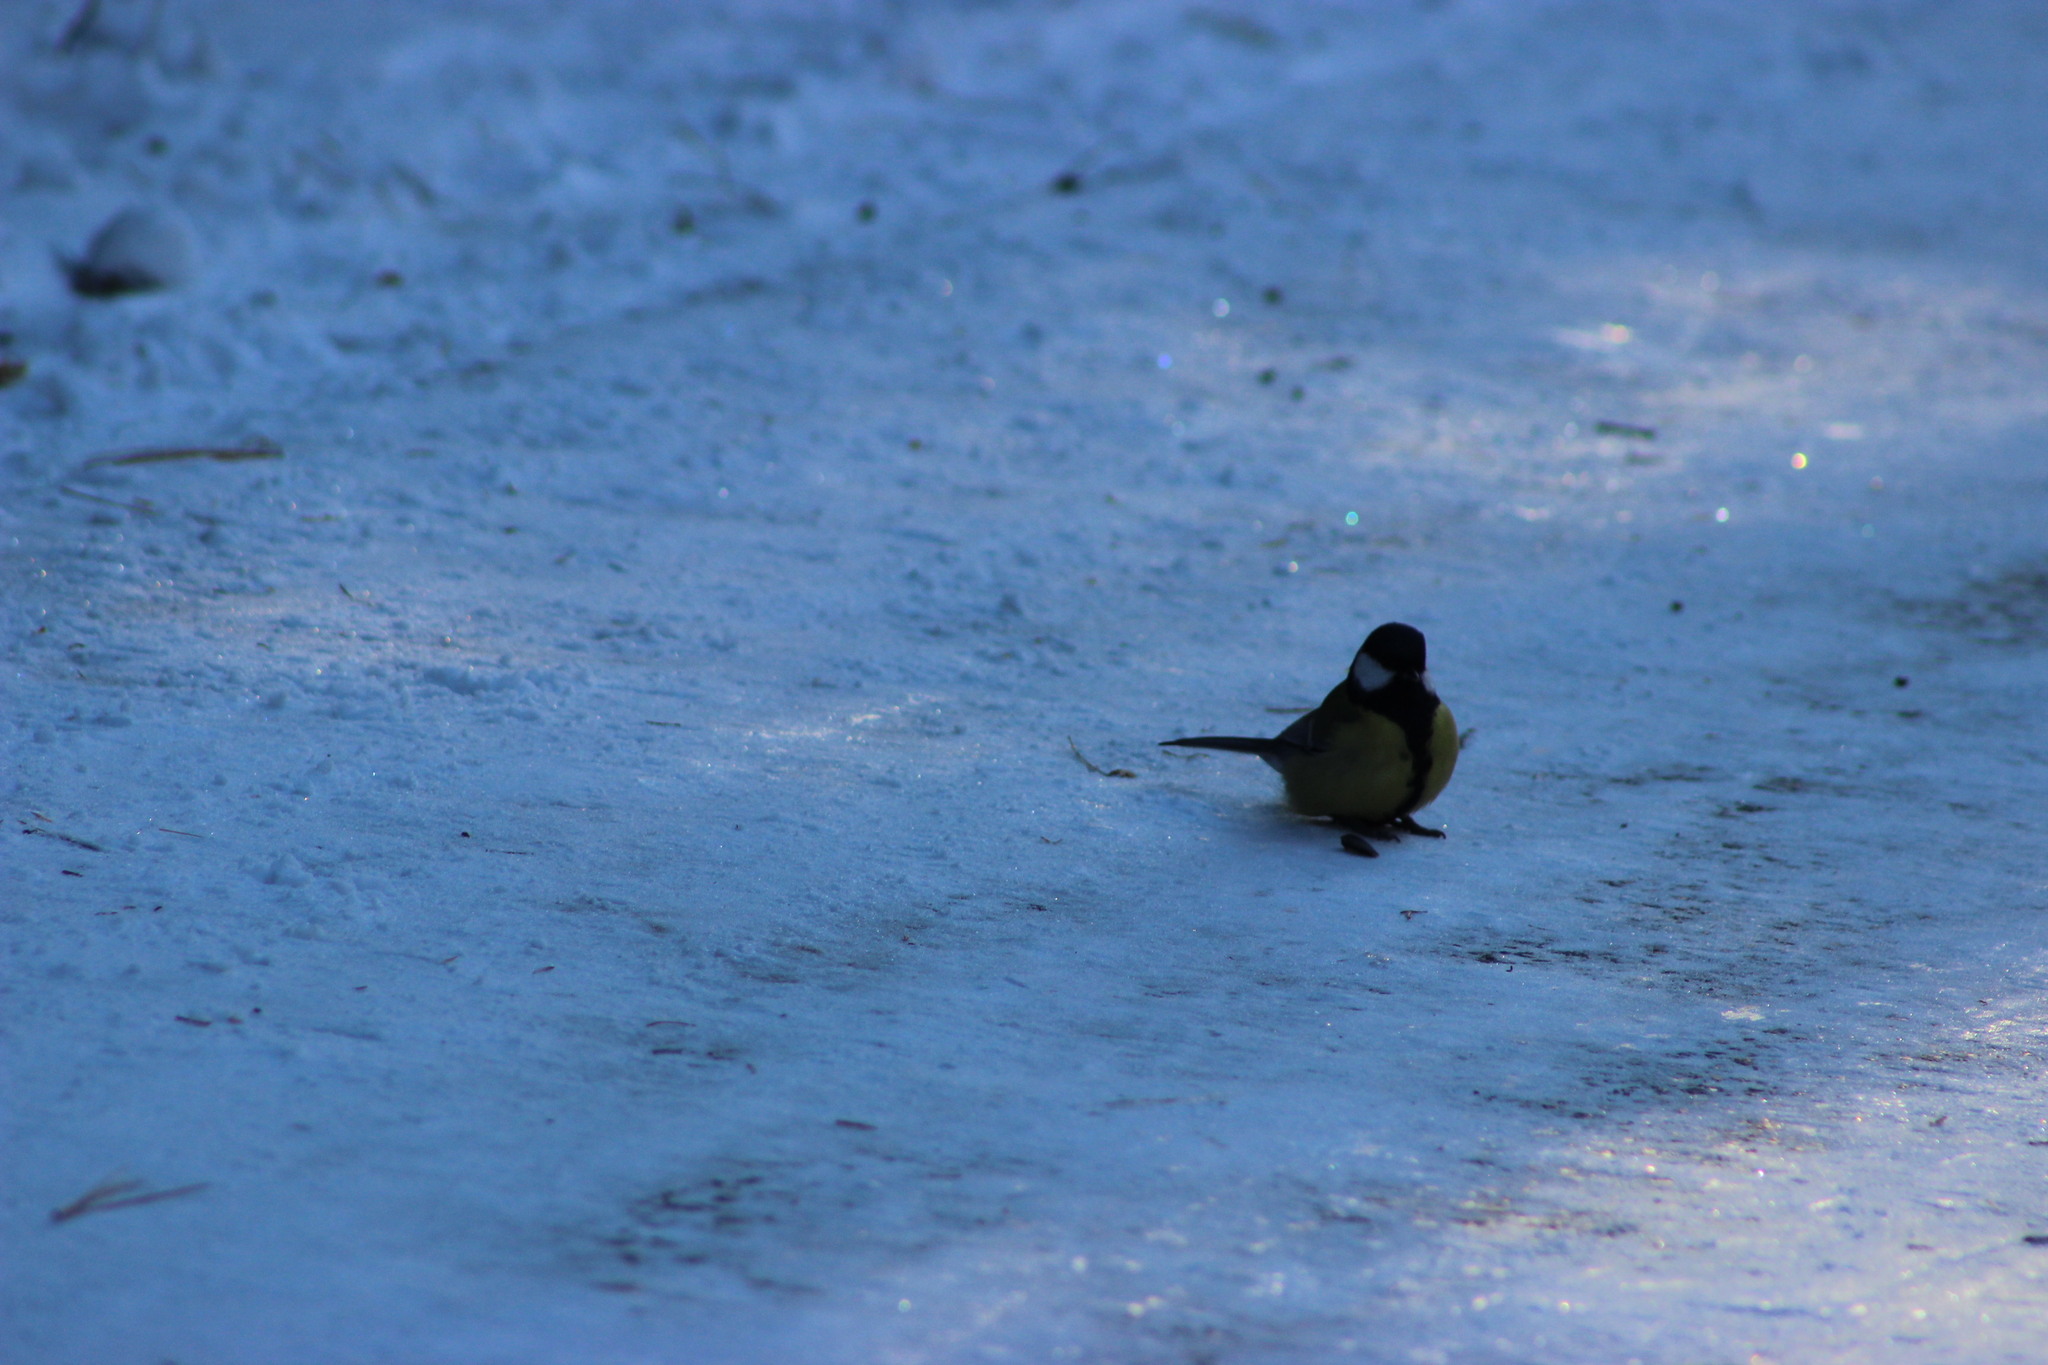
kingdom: Animalia
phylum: Chordata
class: Aves
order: Passeriformes
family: Paridae
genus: Parus
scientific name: Parus major
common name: Great tit
